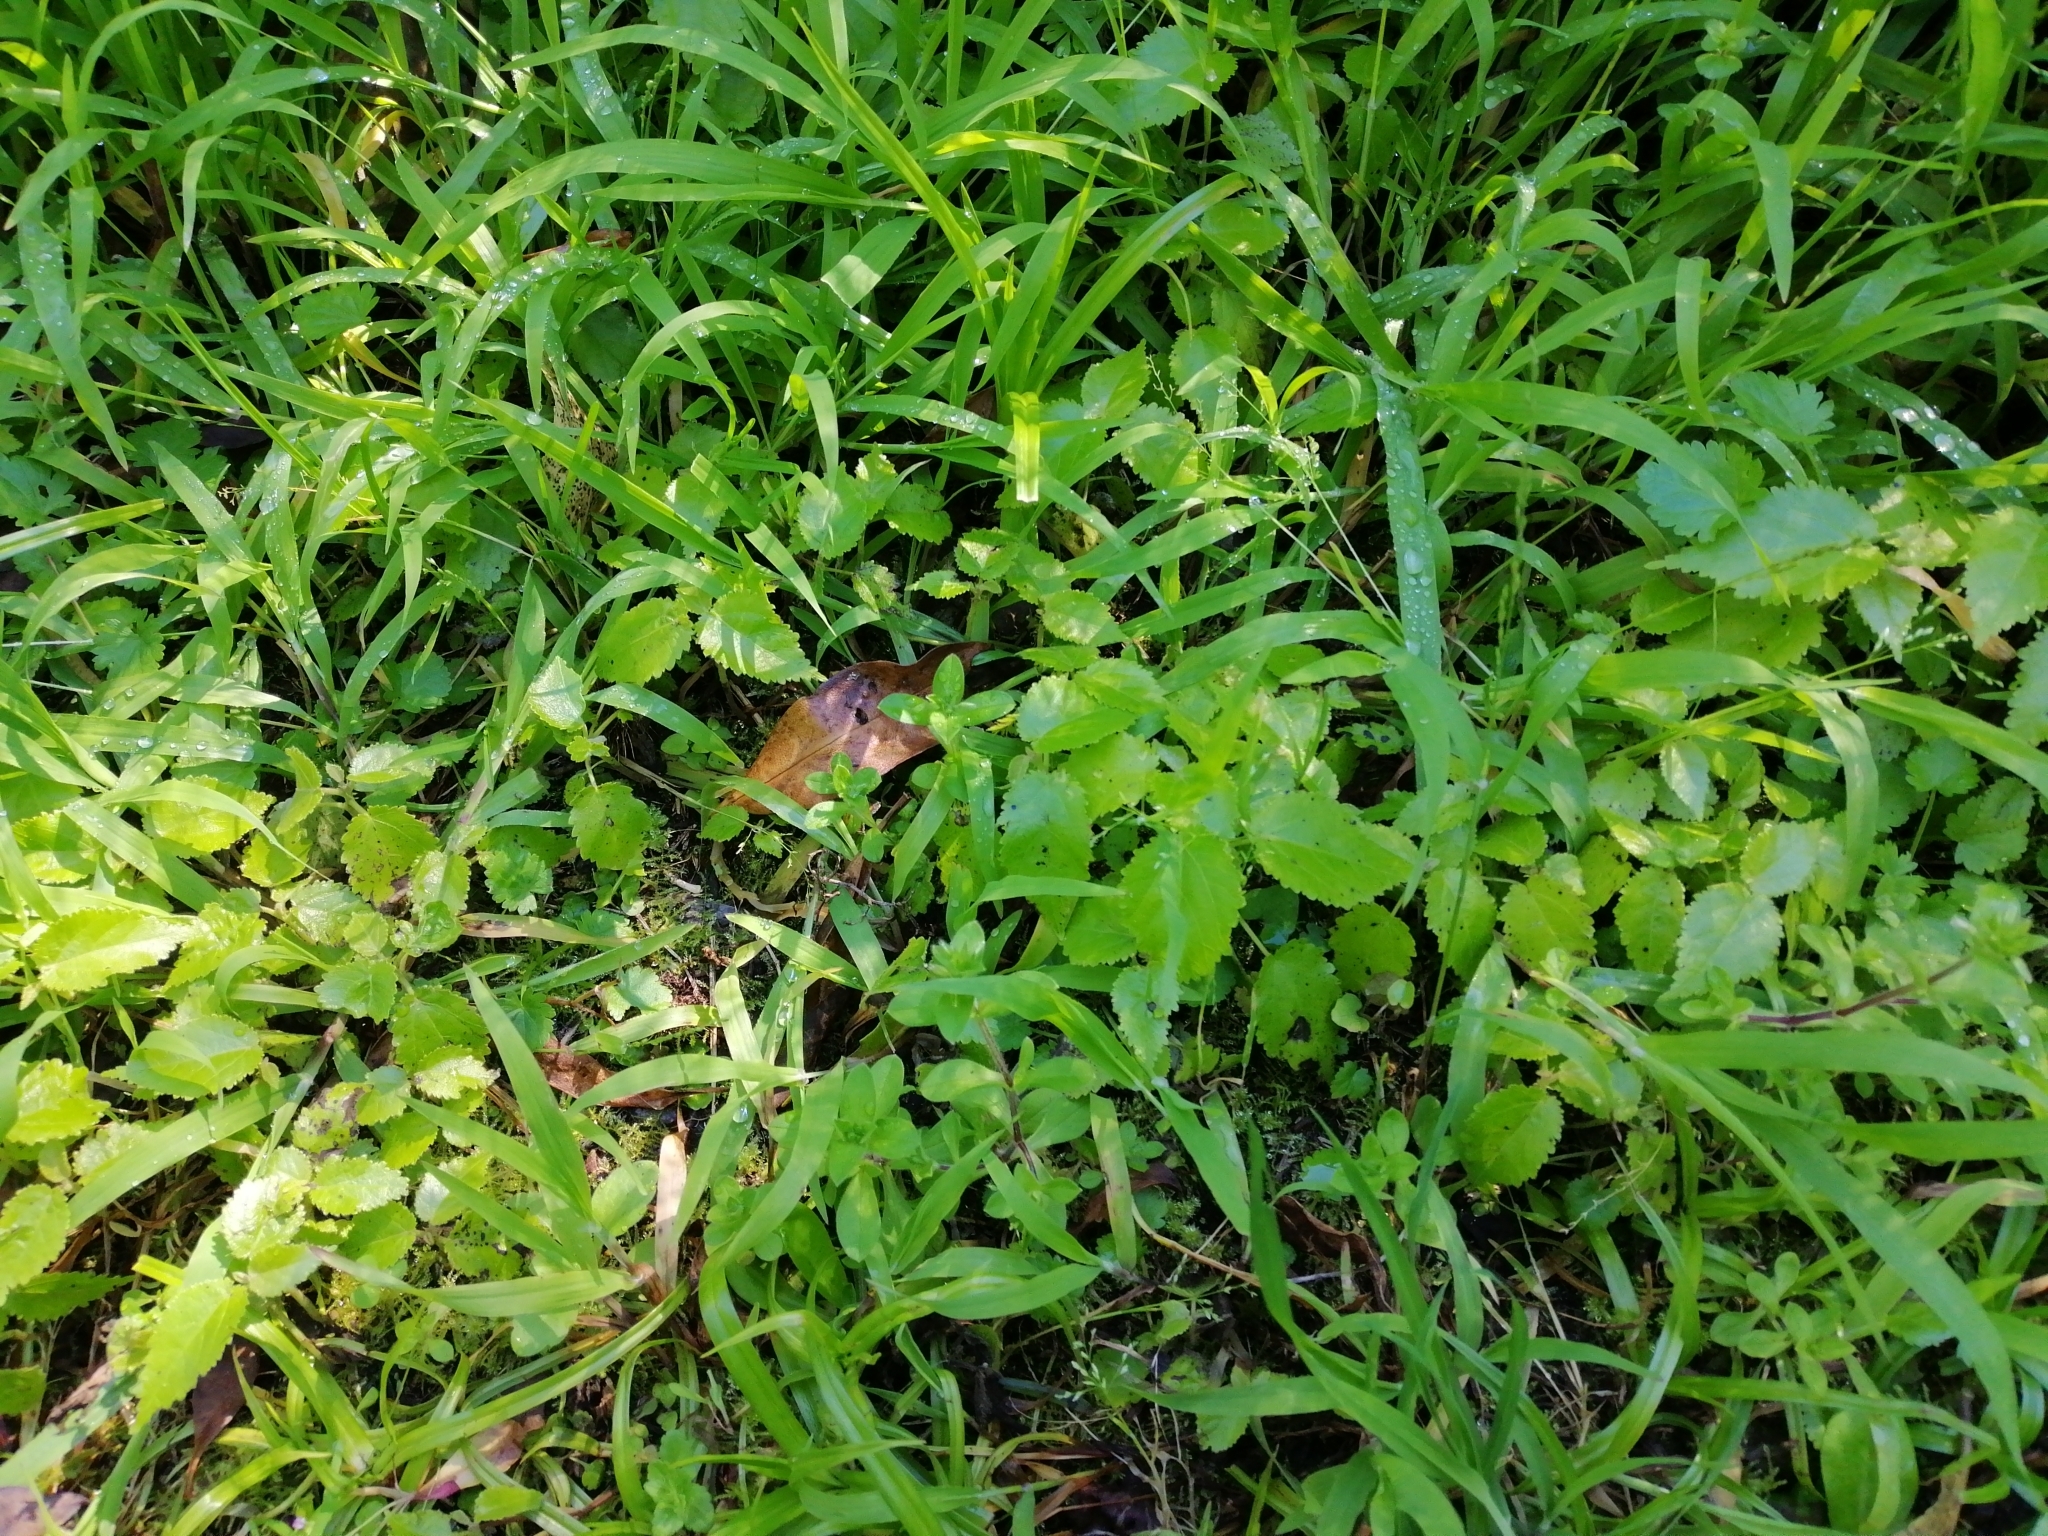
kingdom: Plantae
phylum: Tracheophyta
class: Magnoliopsida
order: Malvales
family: Malvaceae
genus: Entelea
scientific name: Entelea arborescens
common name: New zealand-mulberry
